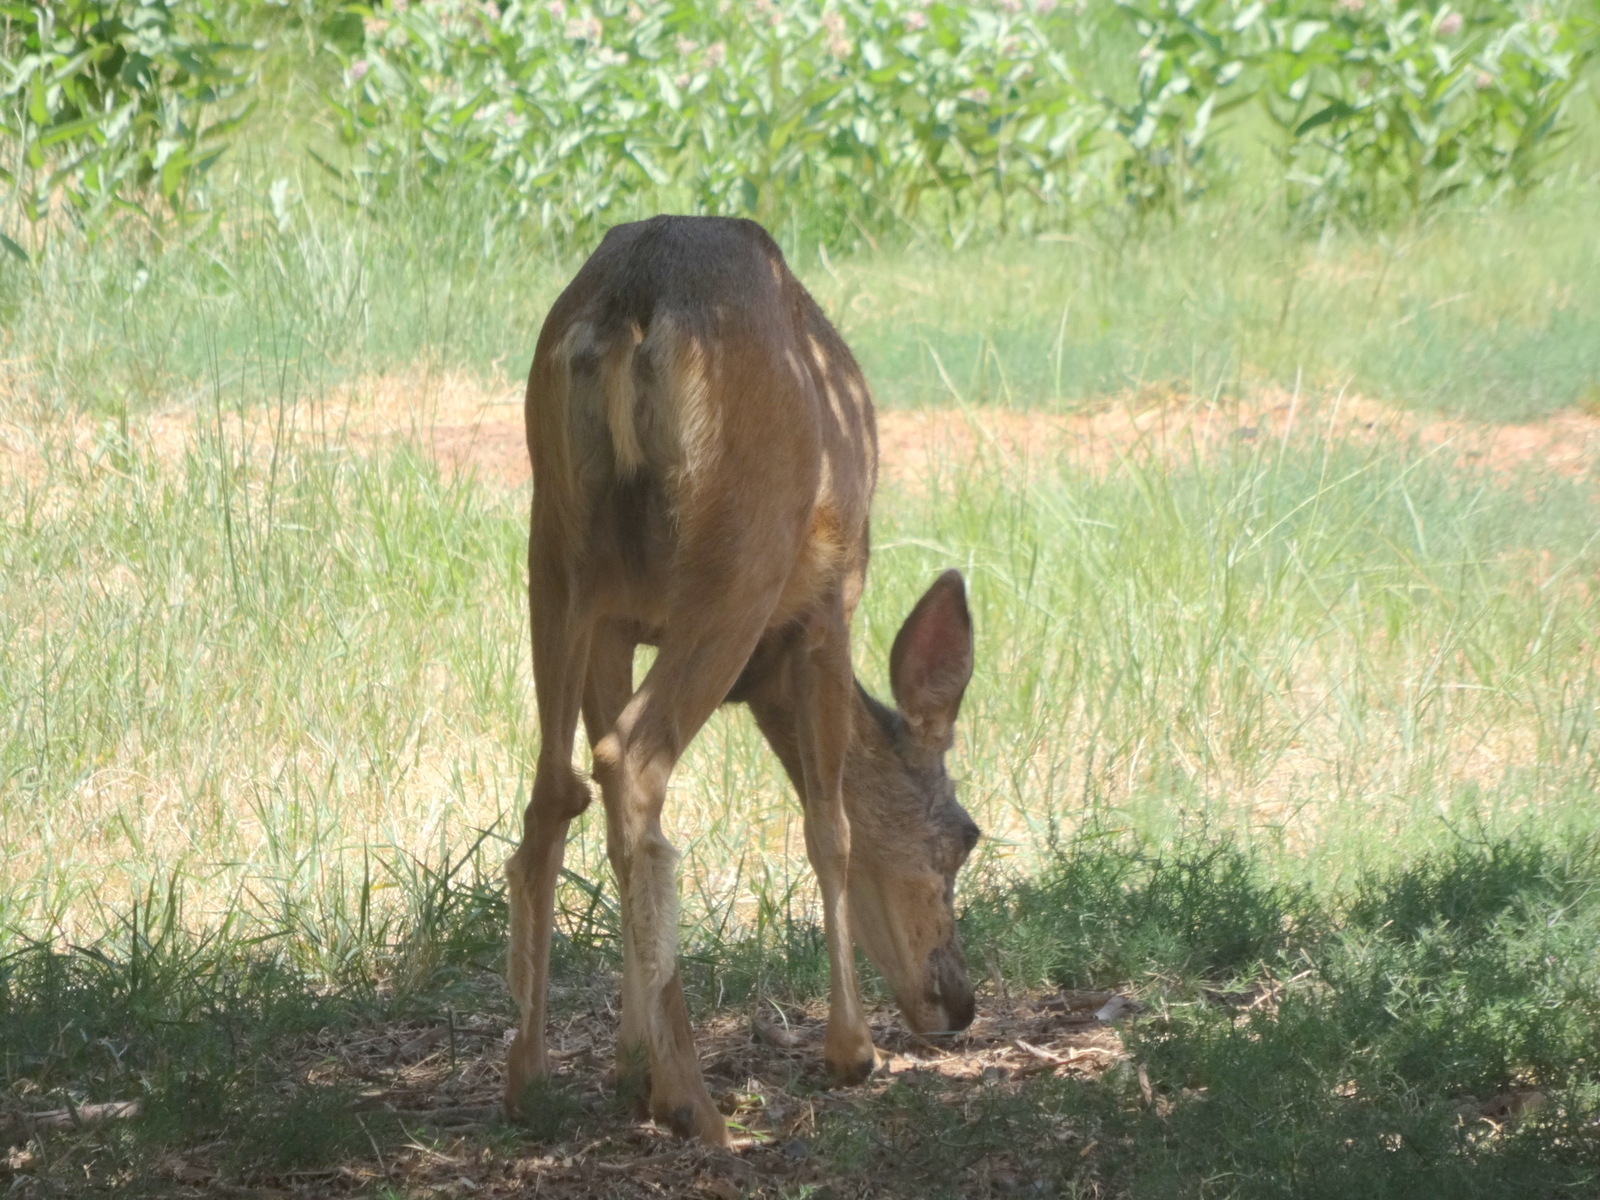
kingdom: Animalia
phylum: Chordata
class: Mammalia
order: Artiodactyla
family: Cervidae
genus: Odocoileus
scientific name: Odocoileus hemionus
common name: Mule deer
